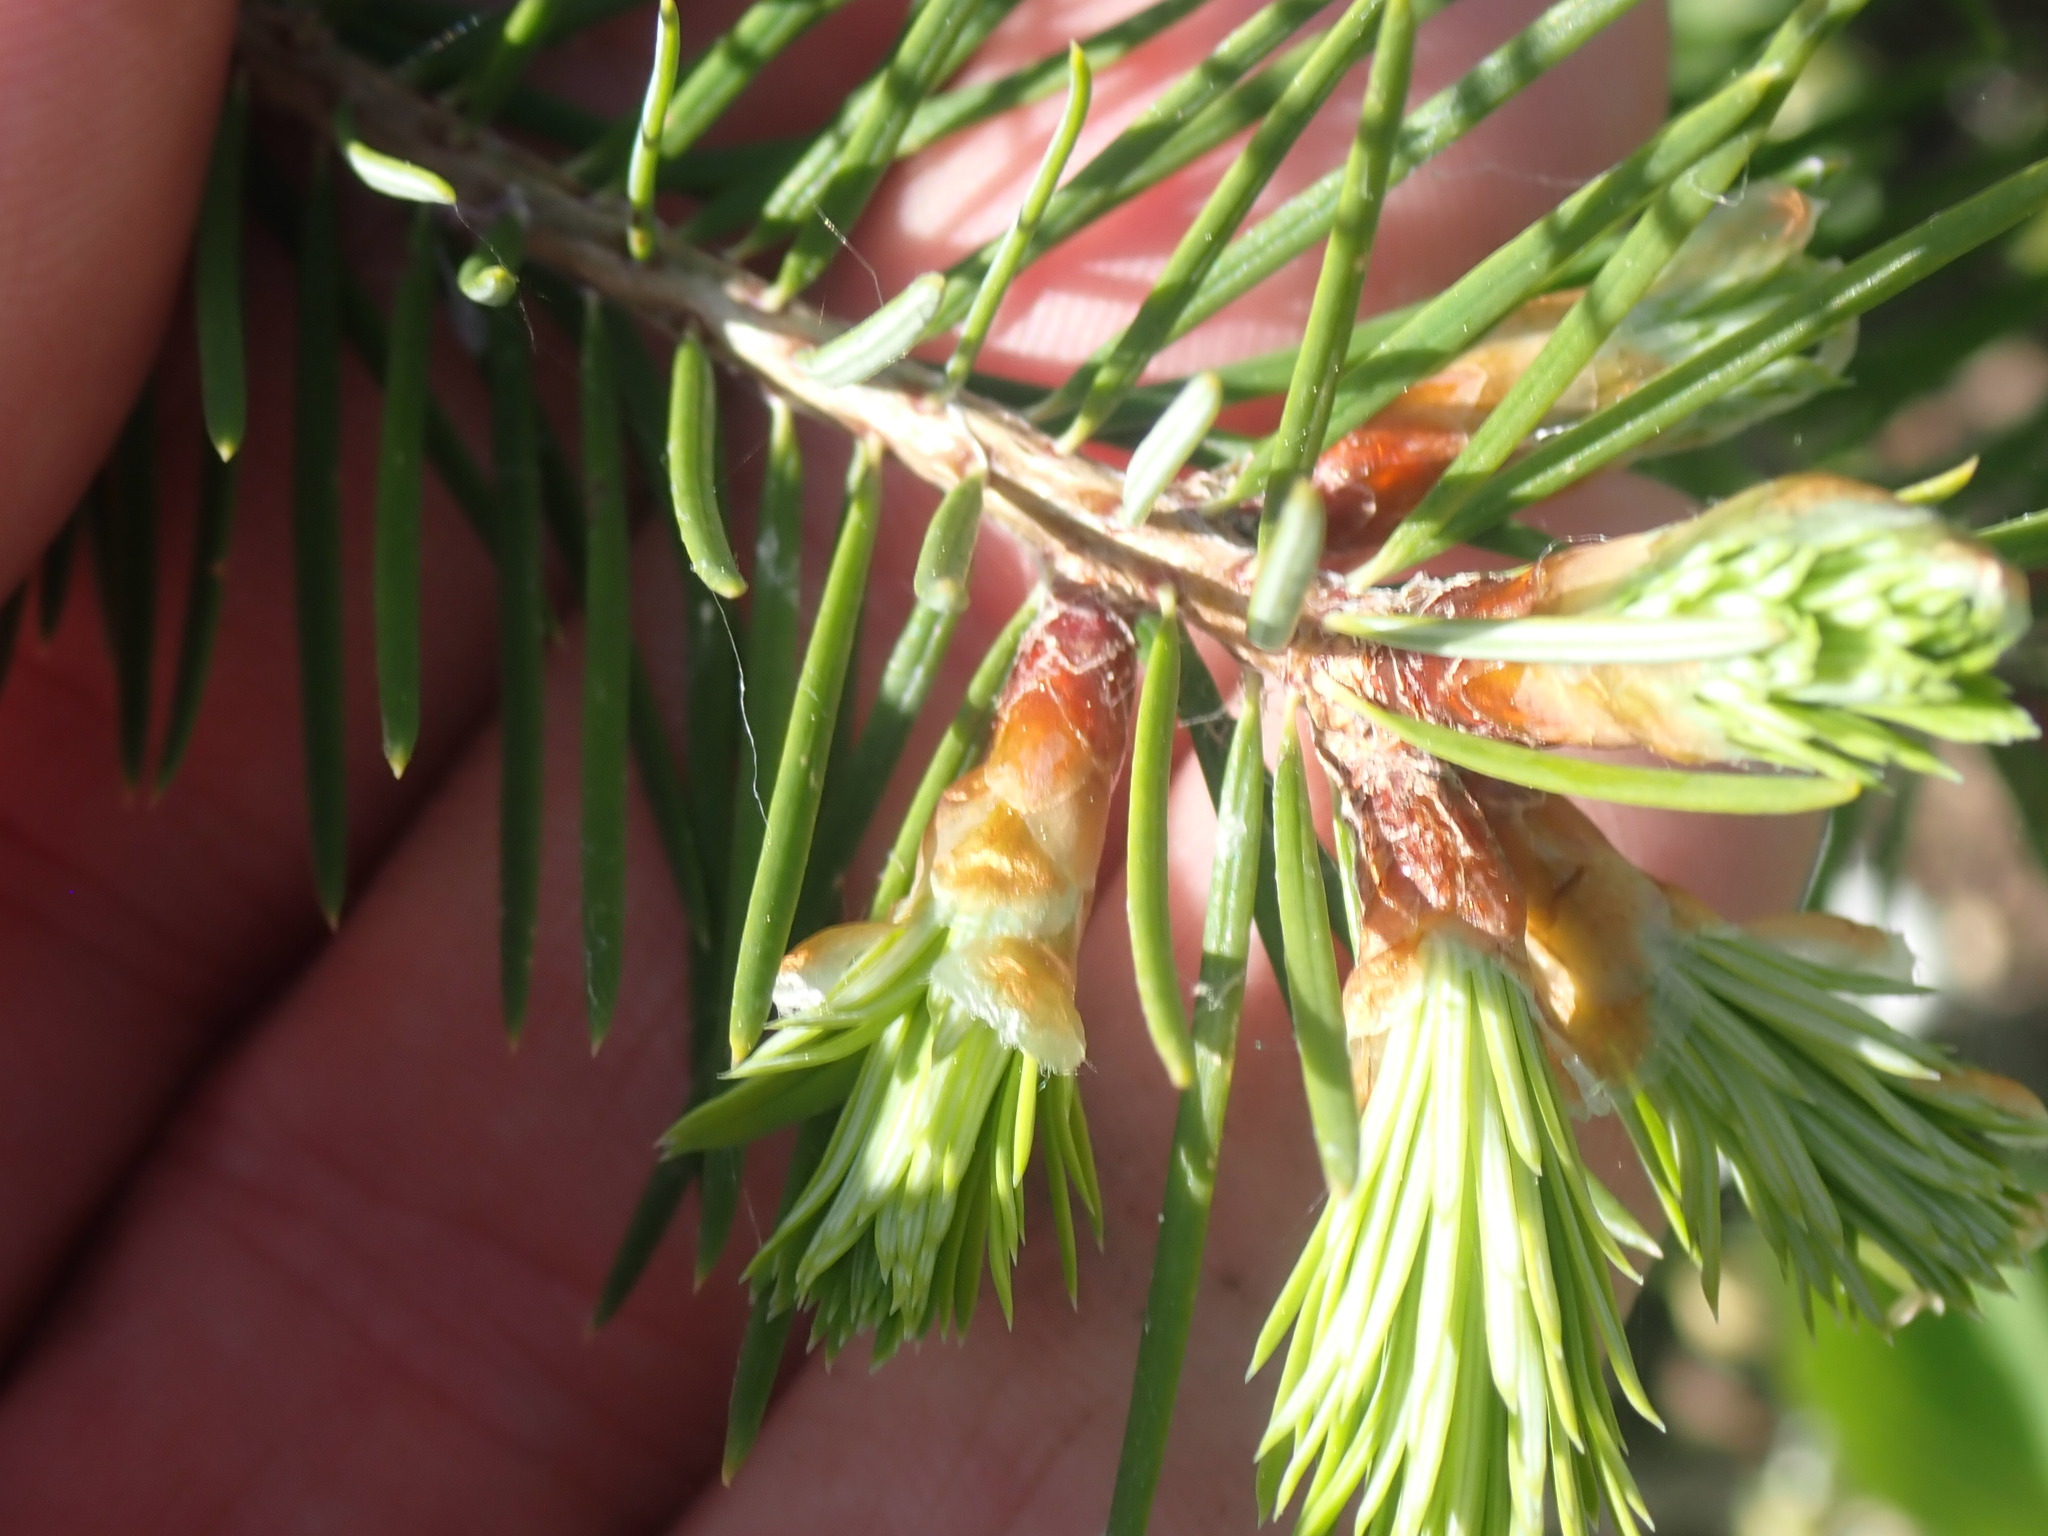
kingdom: Plantae
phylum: Tracheophyta
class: Pinopsida
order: Pinales
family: Pinaceae
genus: Pseudotsuga
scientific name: Pseudotsuga menziesii
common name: Douglas fir
